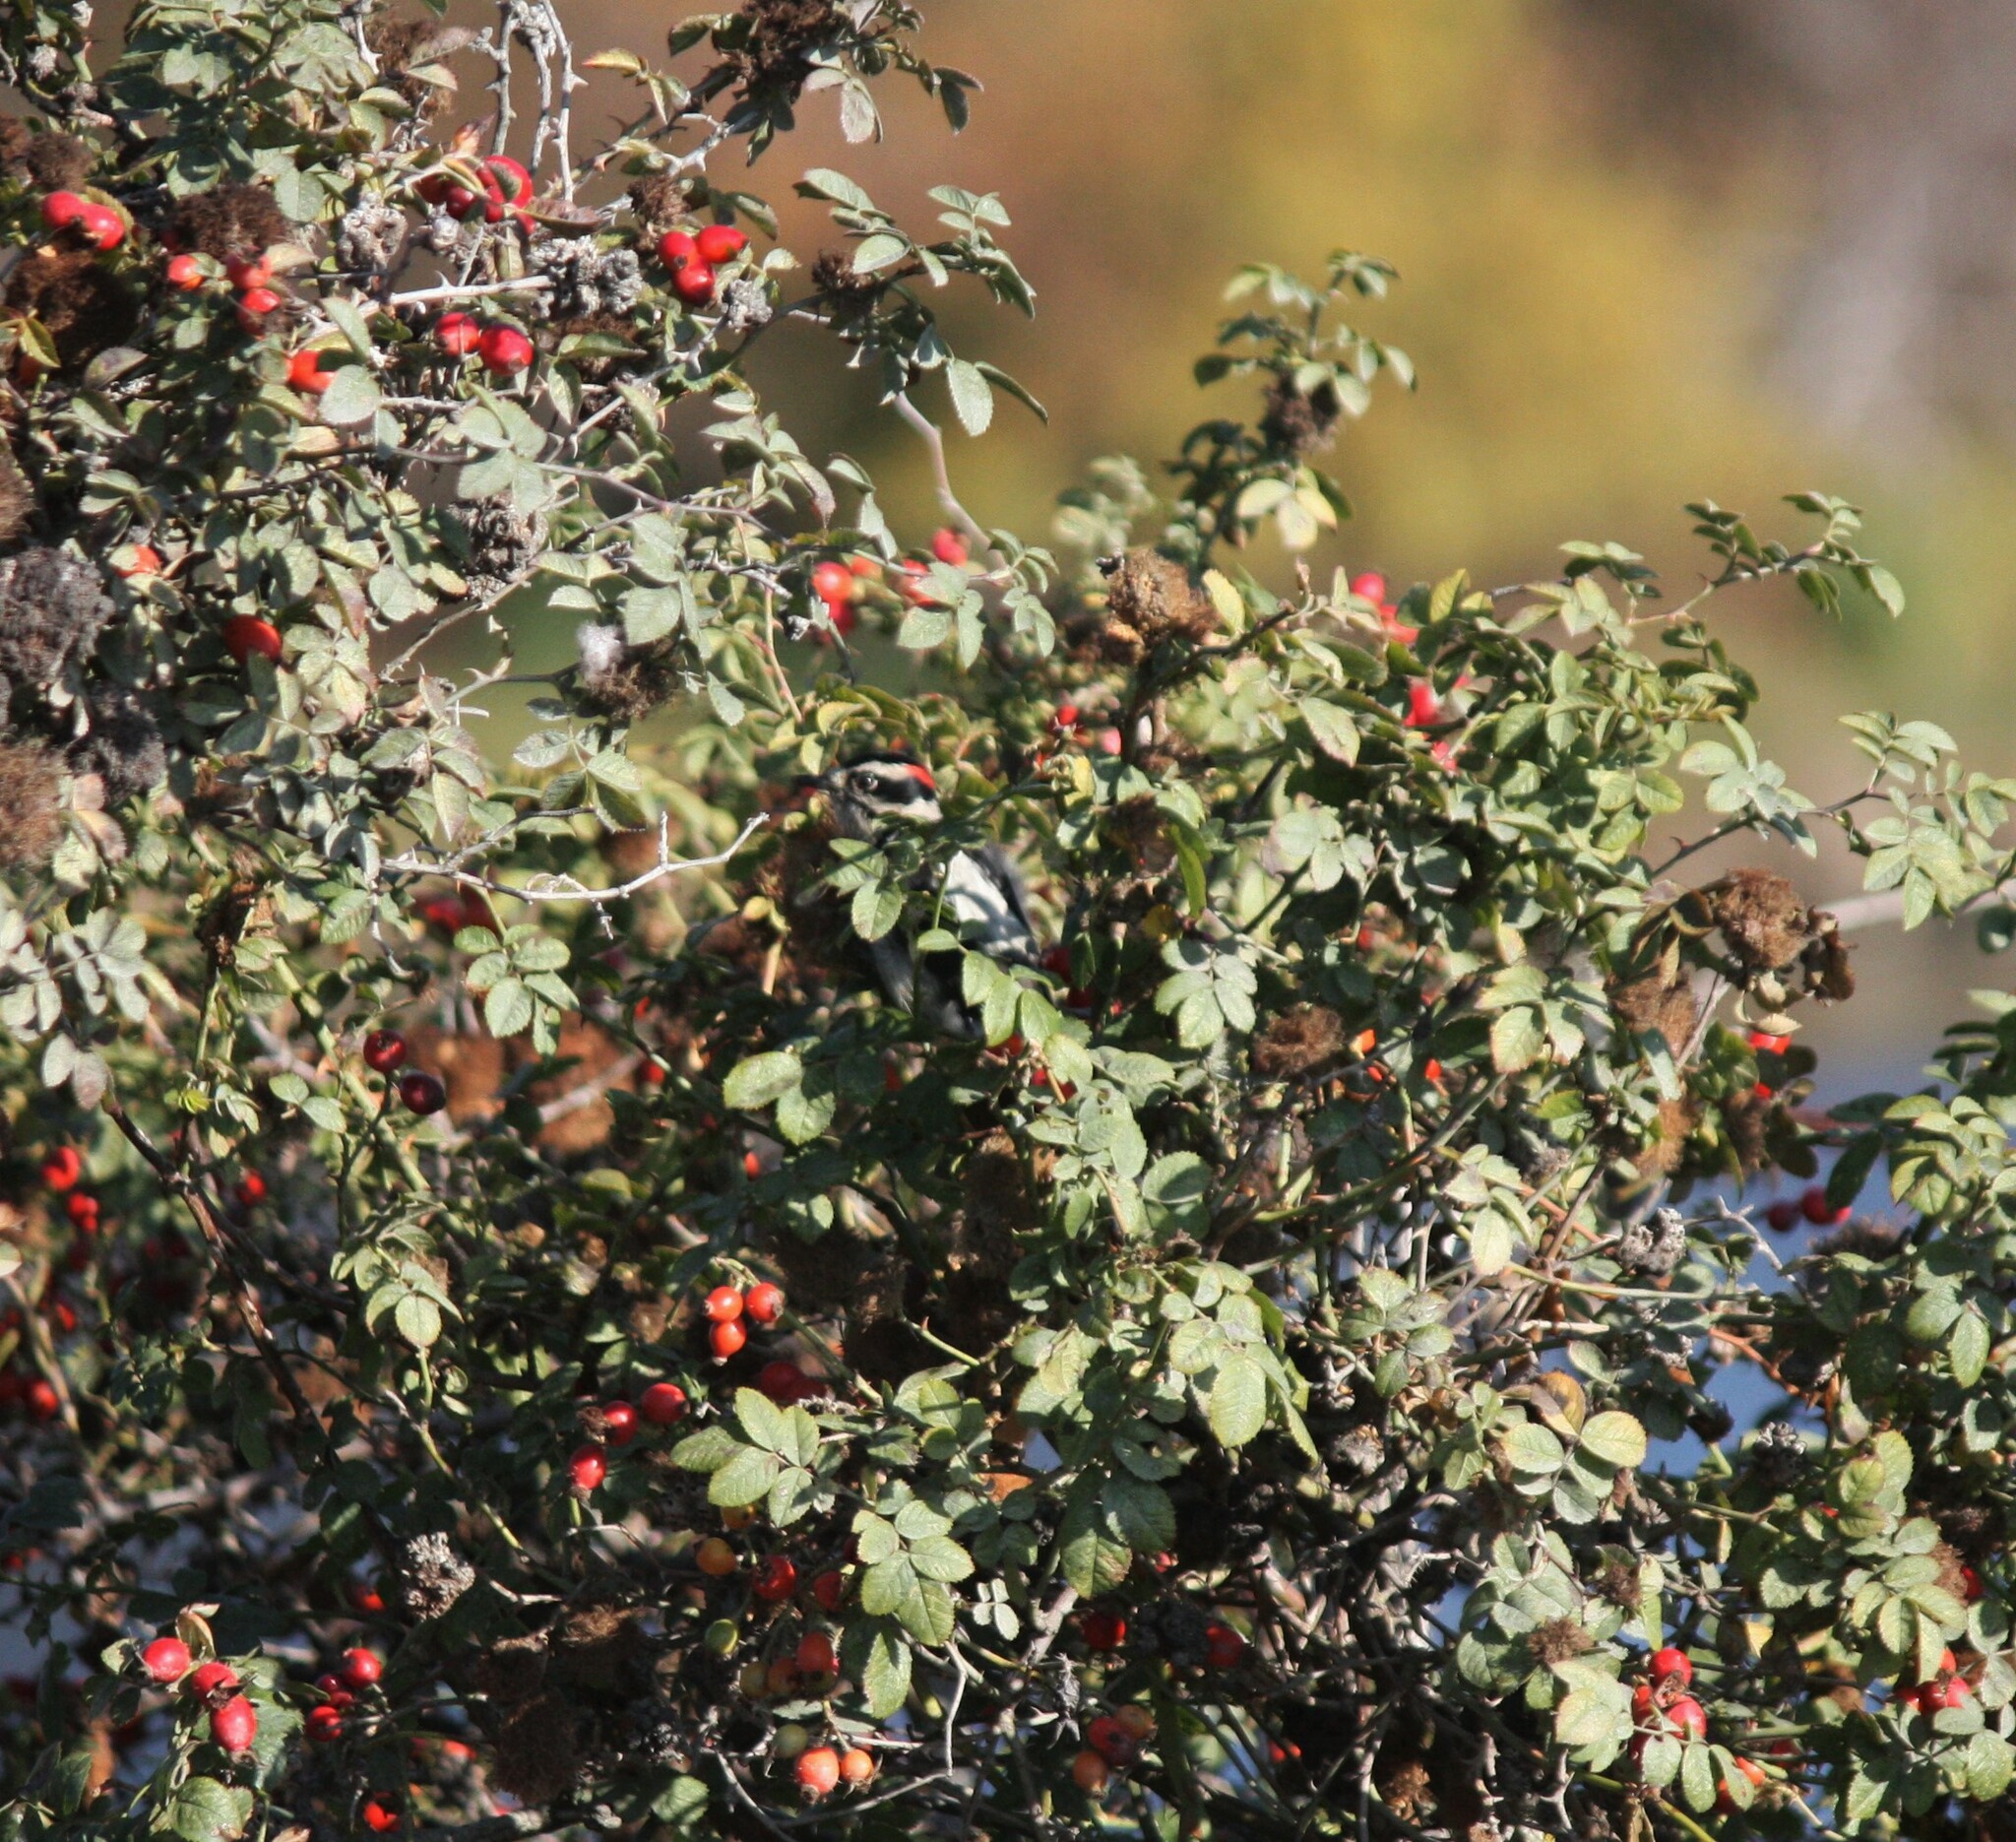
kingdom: Animalia
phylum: Chordata
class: Aves
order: Piciformes
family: Picidae
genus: Dryobates
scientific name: Dryobates pubescens
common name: Downy woodpecker
